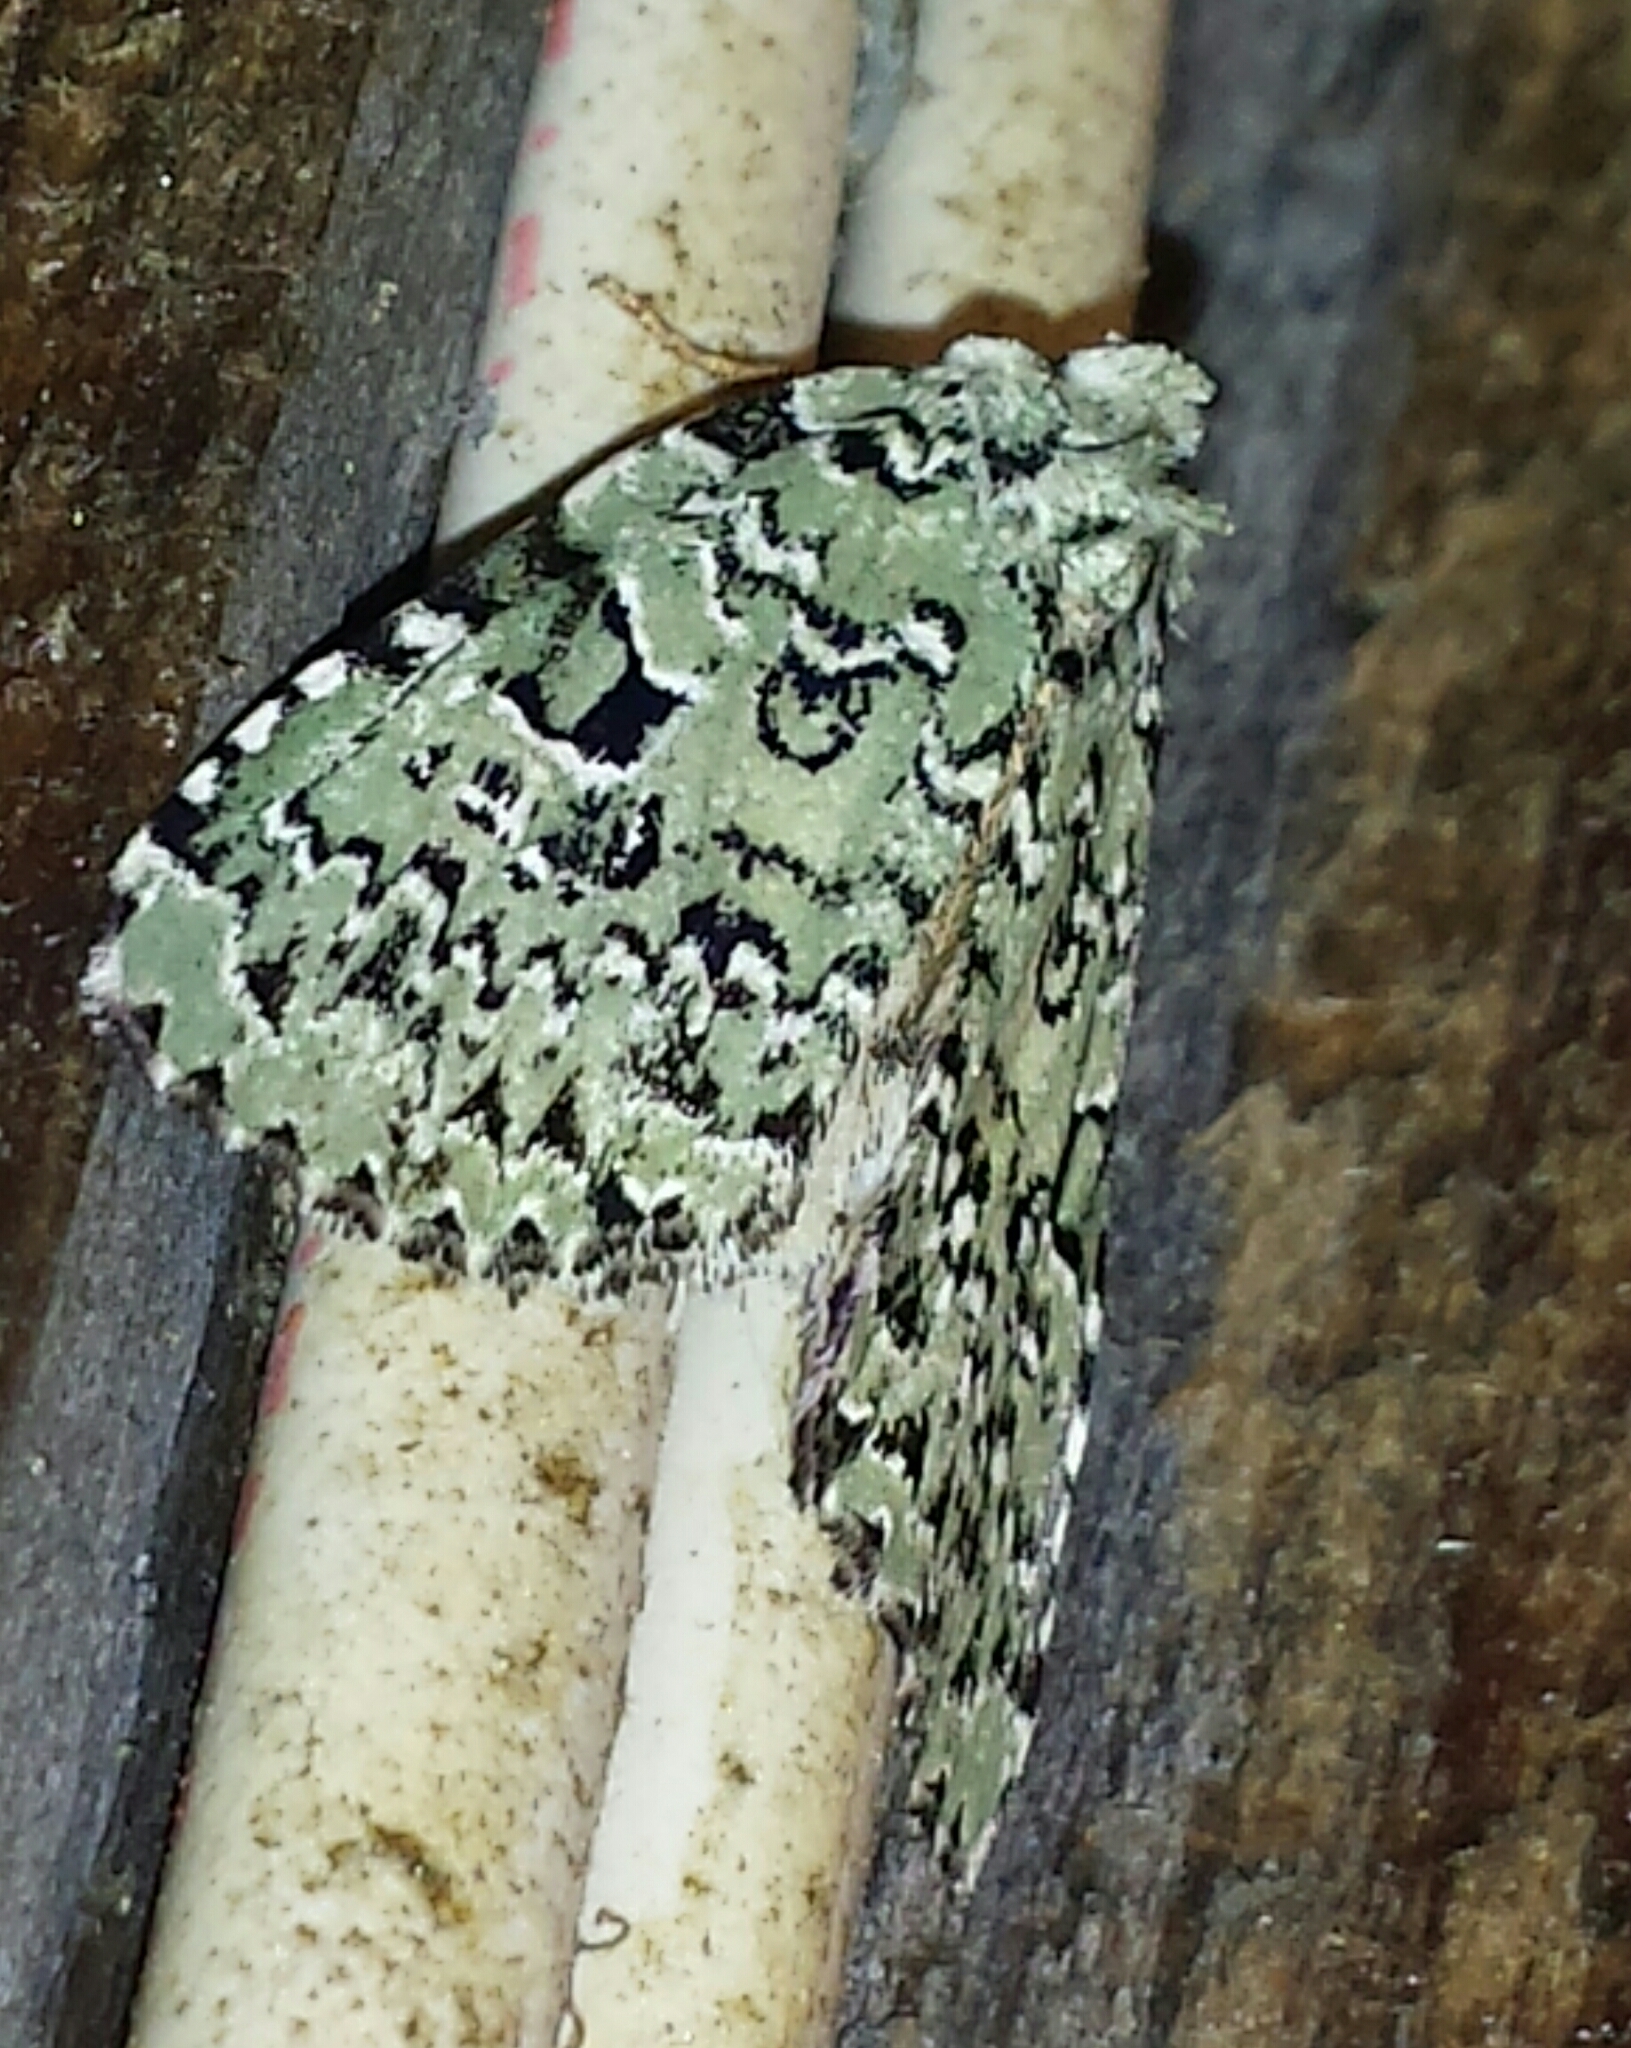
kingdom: Animalia
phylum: Arthropoda
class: Insecta
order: Lepidoptera
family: Noctuidae
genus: Leuconycta
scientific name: Leuconycta diphteroides
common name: Green leuconycta moth
